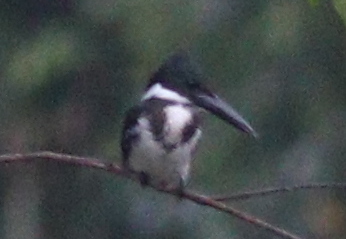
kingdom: Animalia
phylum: Chordata
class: Aves
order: Coraciiformes
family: Alcedinidae
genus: Chloroceryle
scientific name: Chloroceryle amazona
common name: Amazon kingfisher
